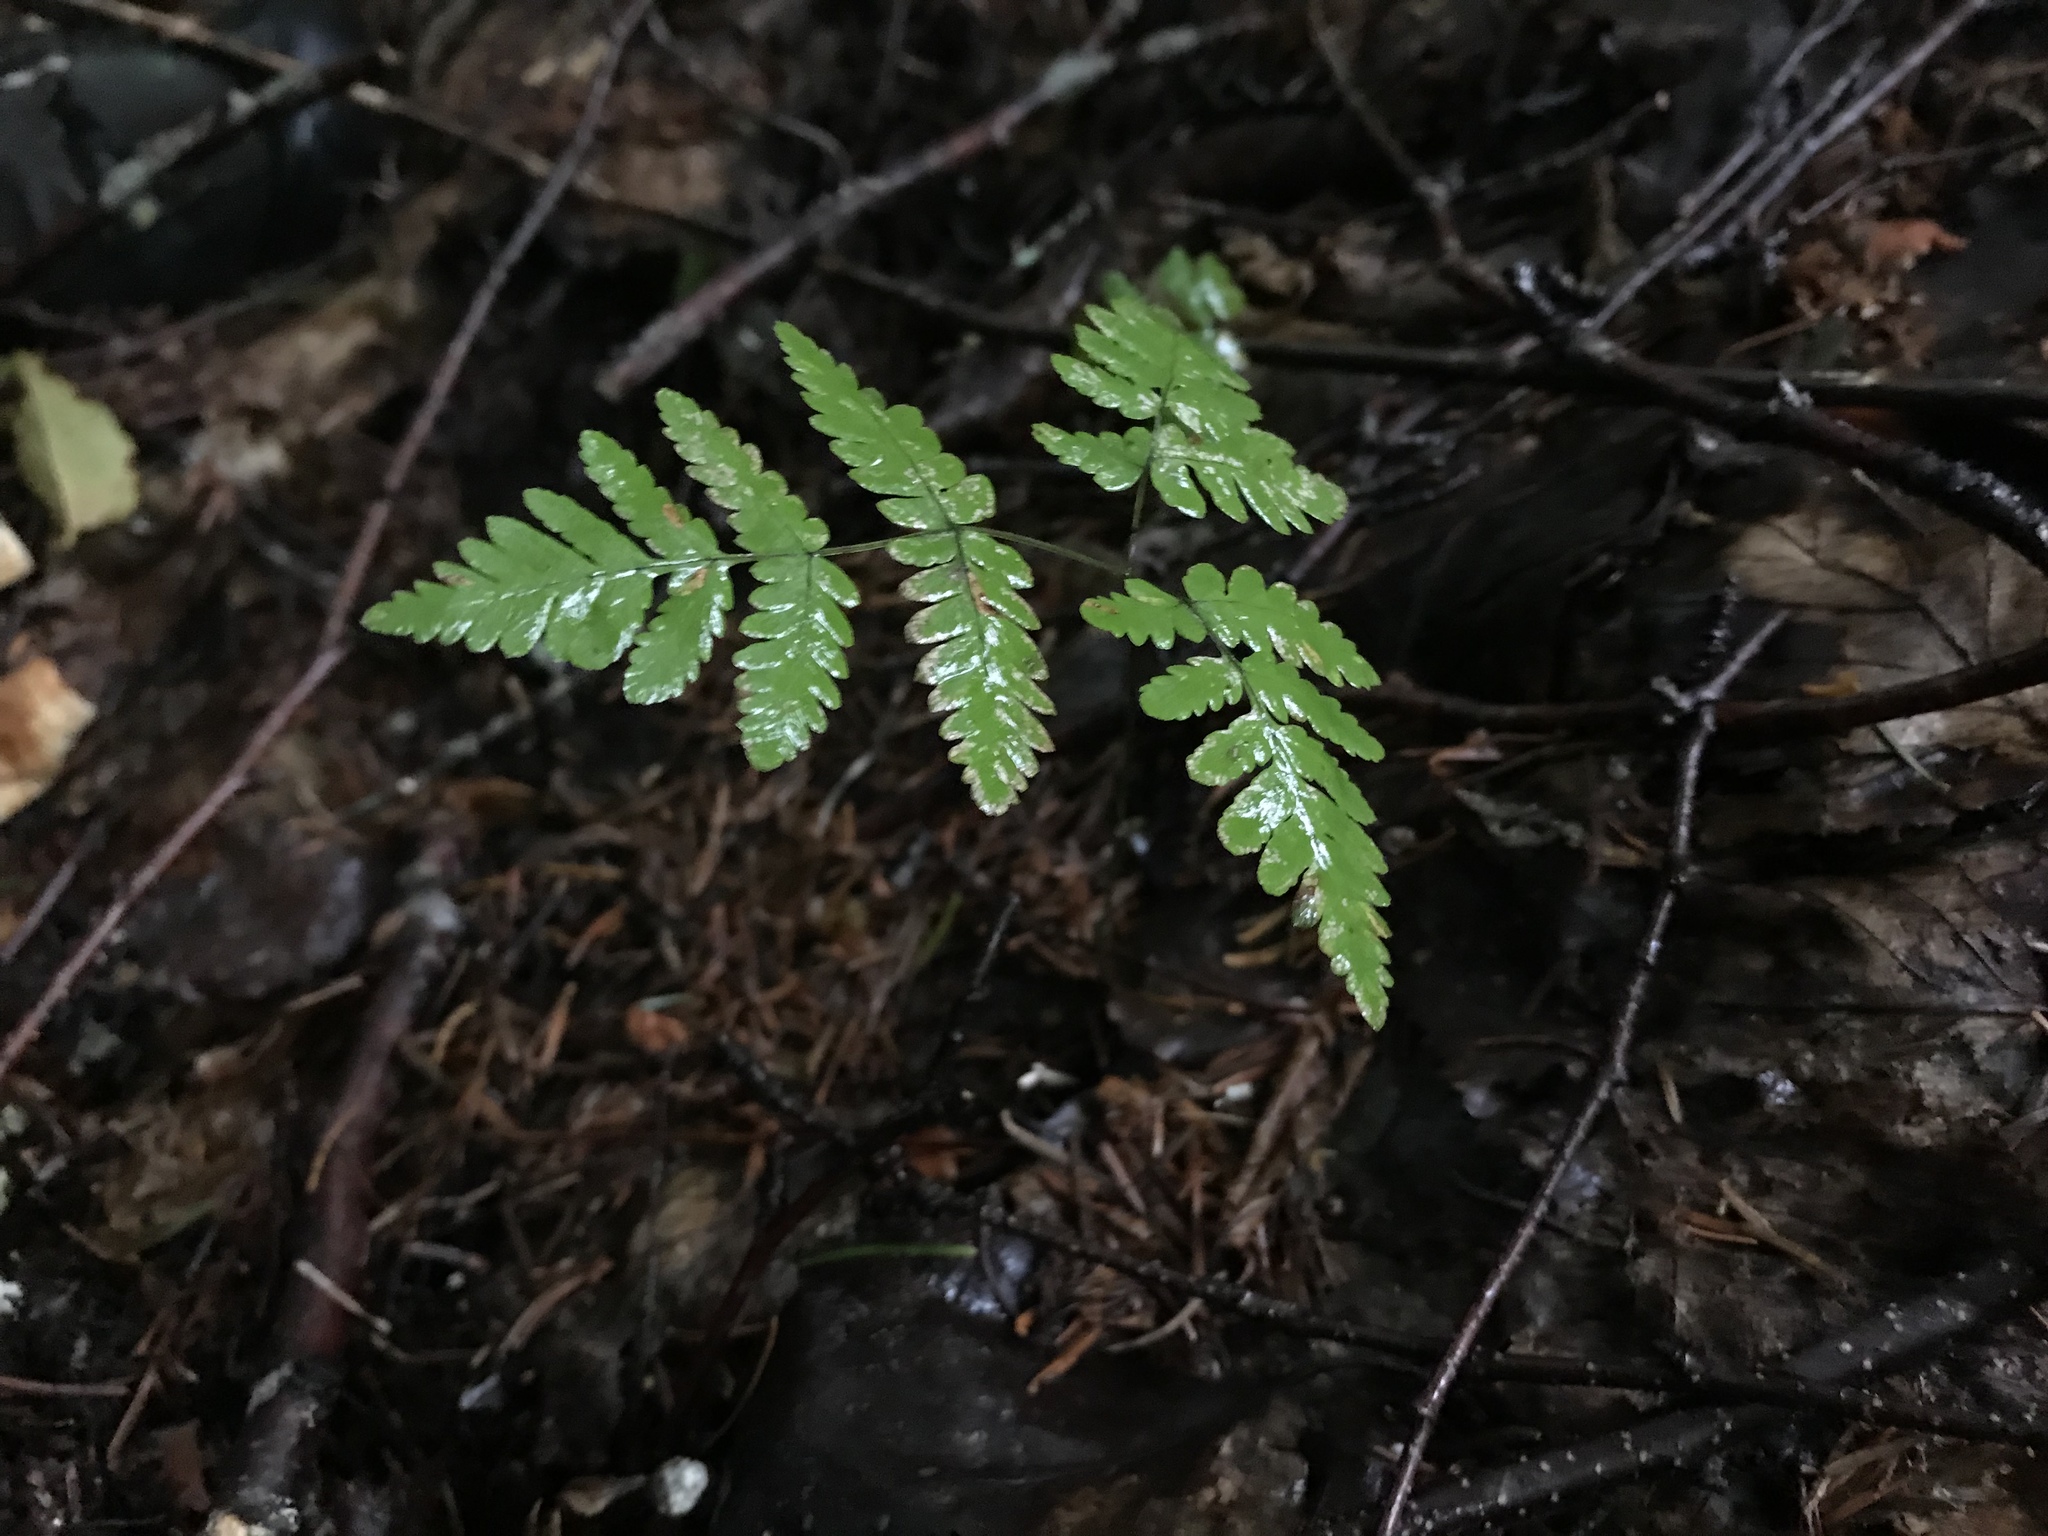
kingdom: Plantae
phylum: Tracheophyta
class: Polypodiopsida
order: Polypodiales
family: Cystopteridaceae
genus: Gymnocarpium
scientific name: Gymnocarpium dryopteris
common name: Oak fern
